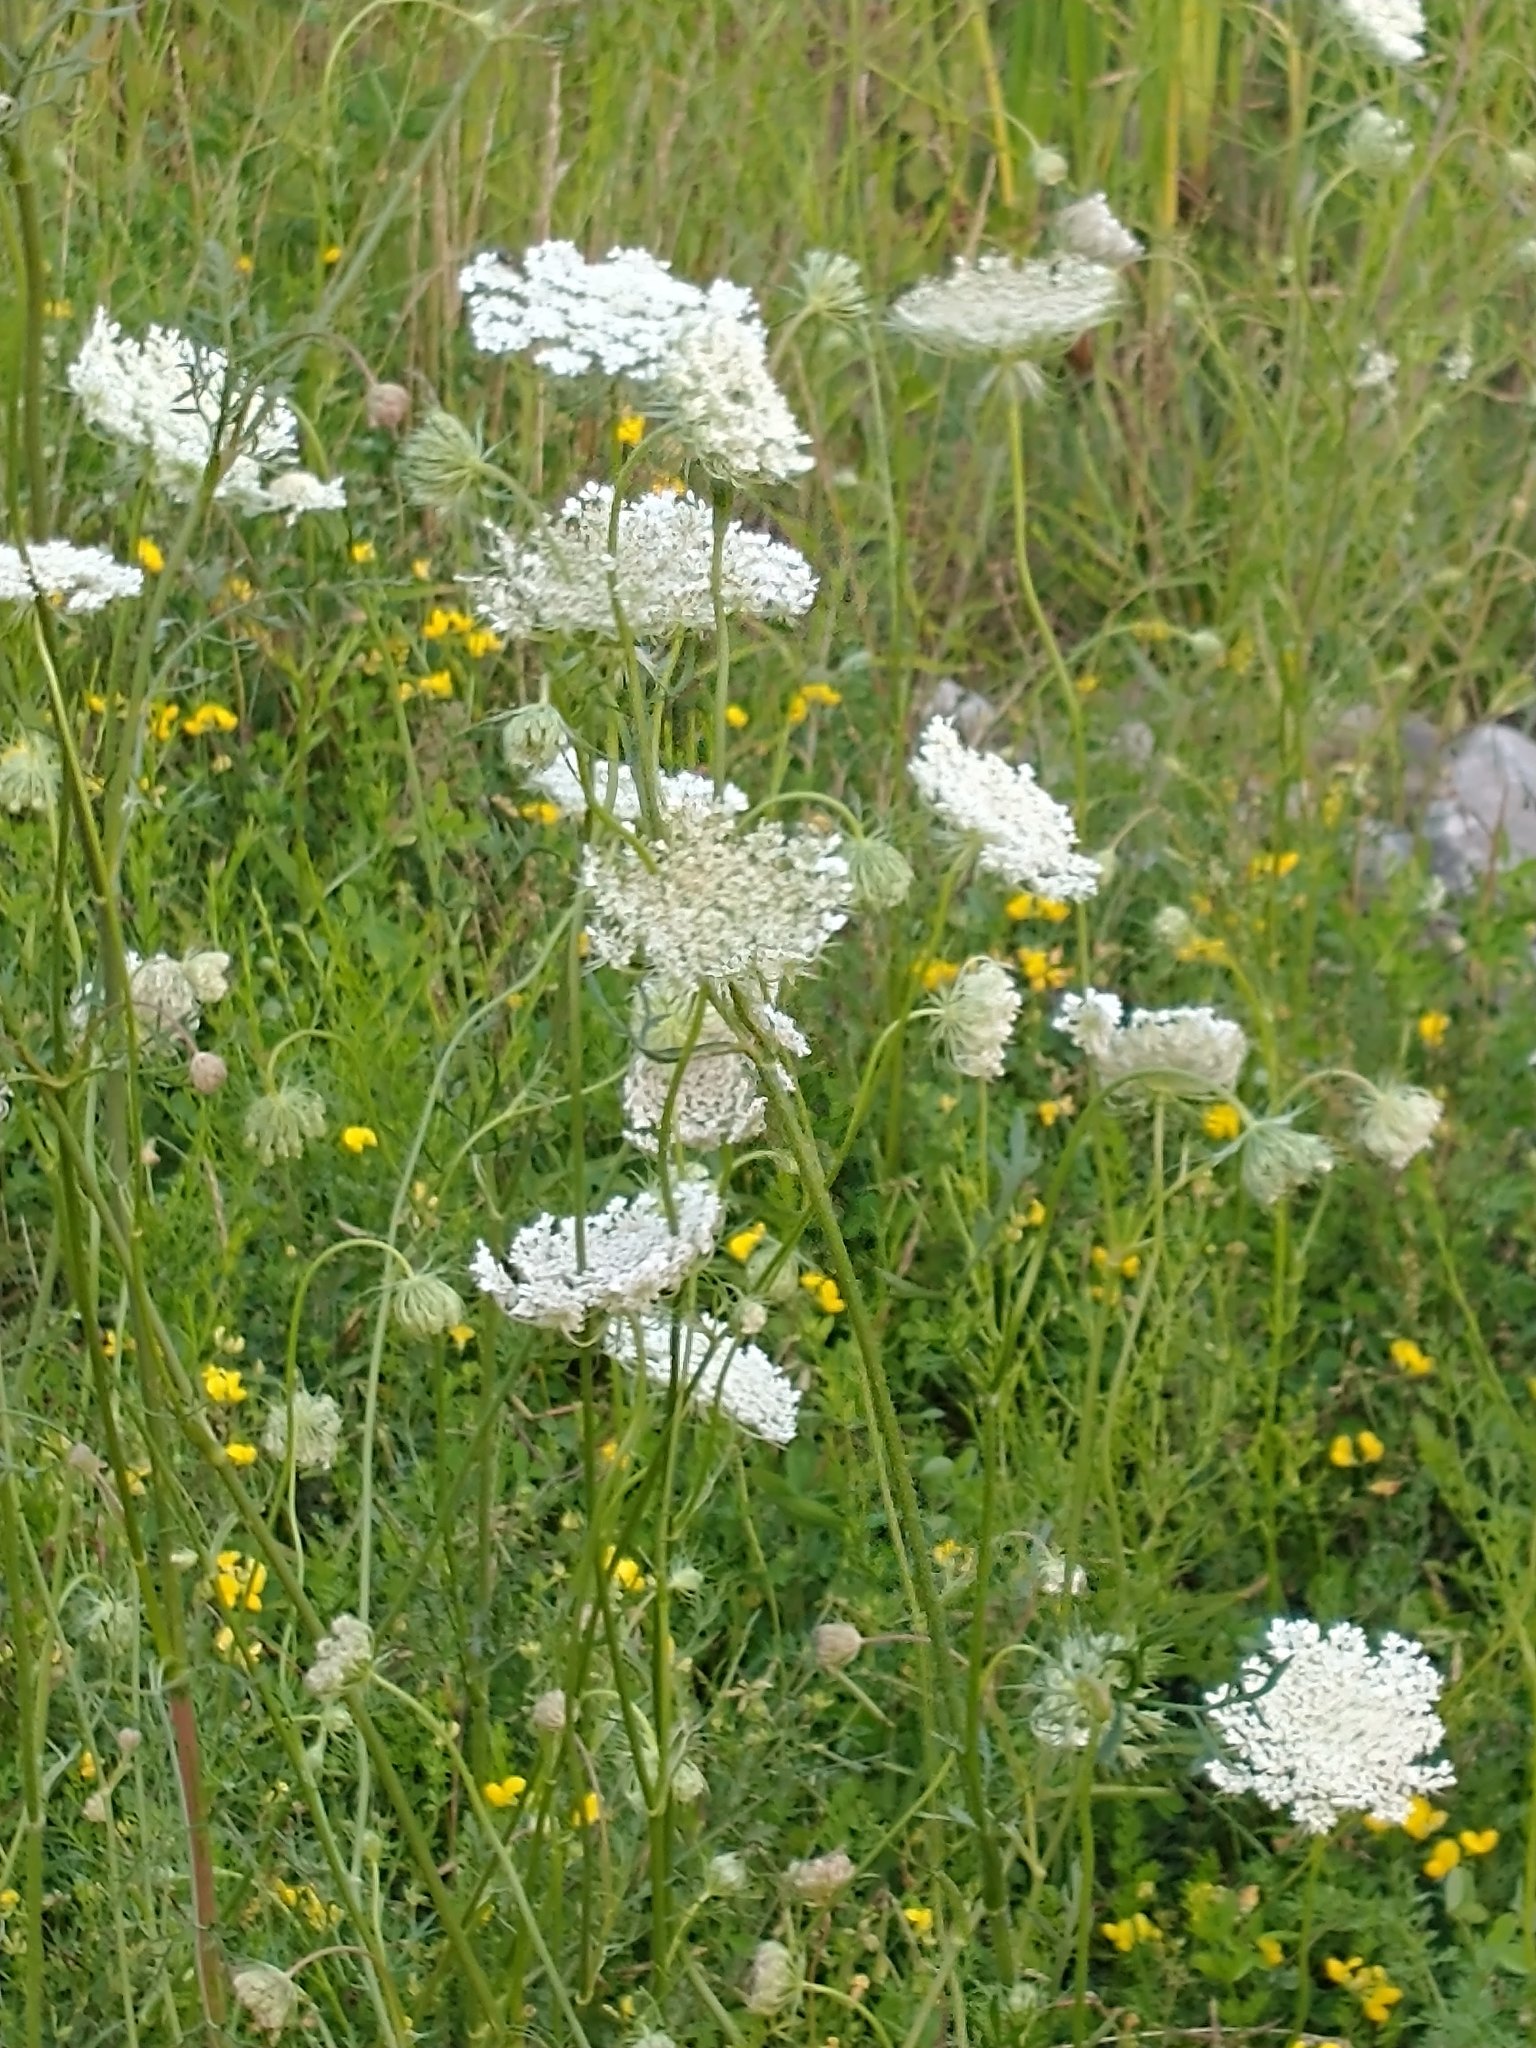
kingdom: Plantae
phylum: Tracheophyta
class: Magnoliopsida
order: Apiales
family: Apiaceae
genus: Daucus
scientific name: Daucus carota
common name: Wild carrot
